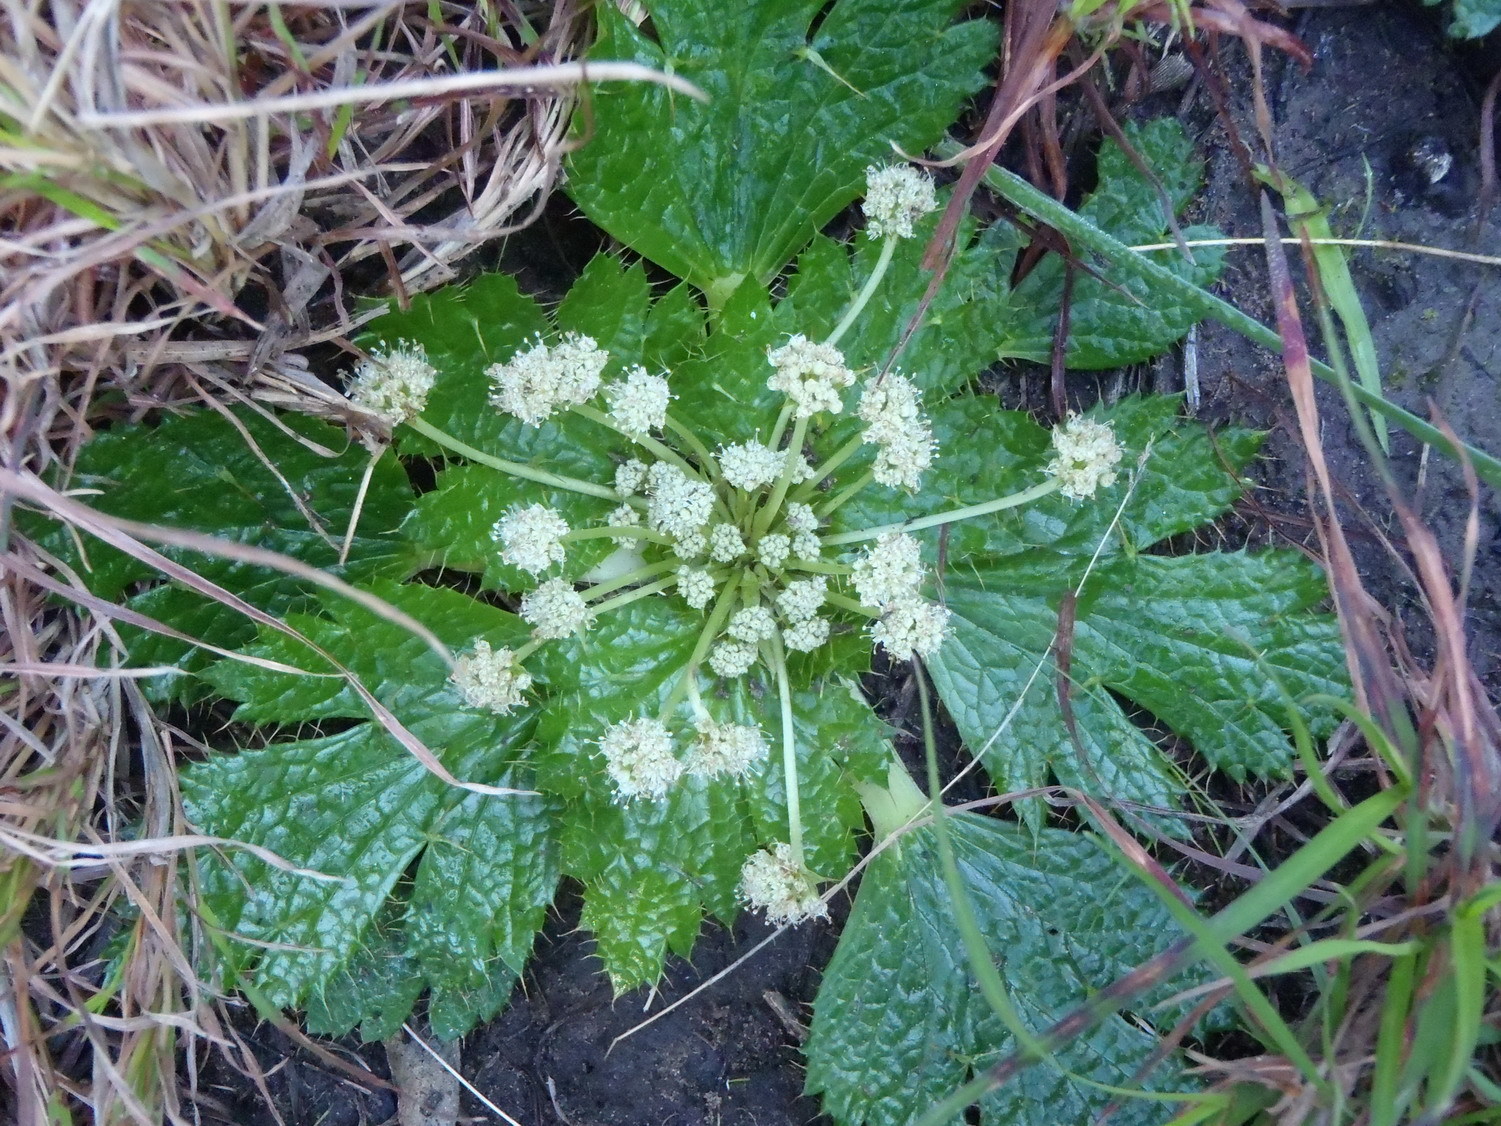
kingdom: Plantae
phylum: Tracheophyta
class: Magnoliopsida
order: Apiales
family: Apiaceae
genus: Arctopus
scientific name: Arctopus echinatus
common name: Platdoring
